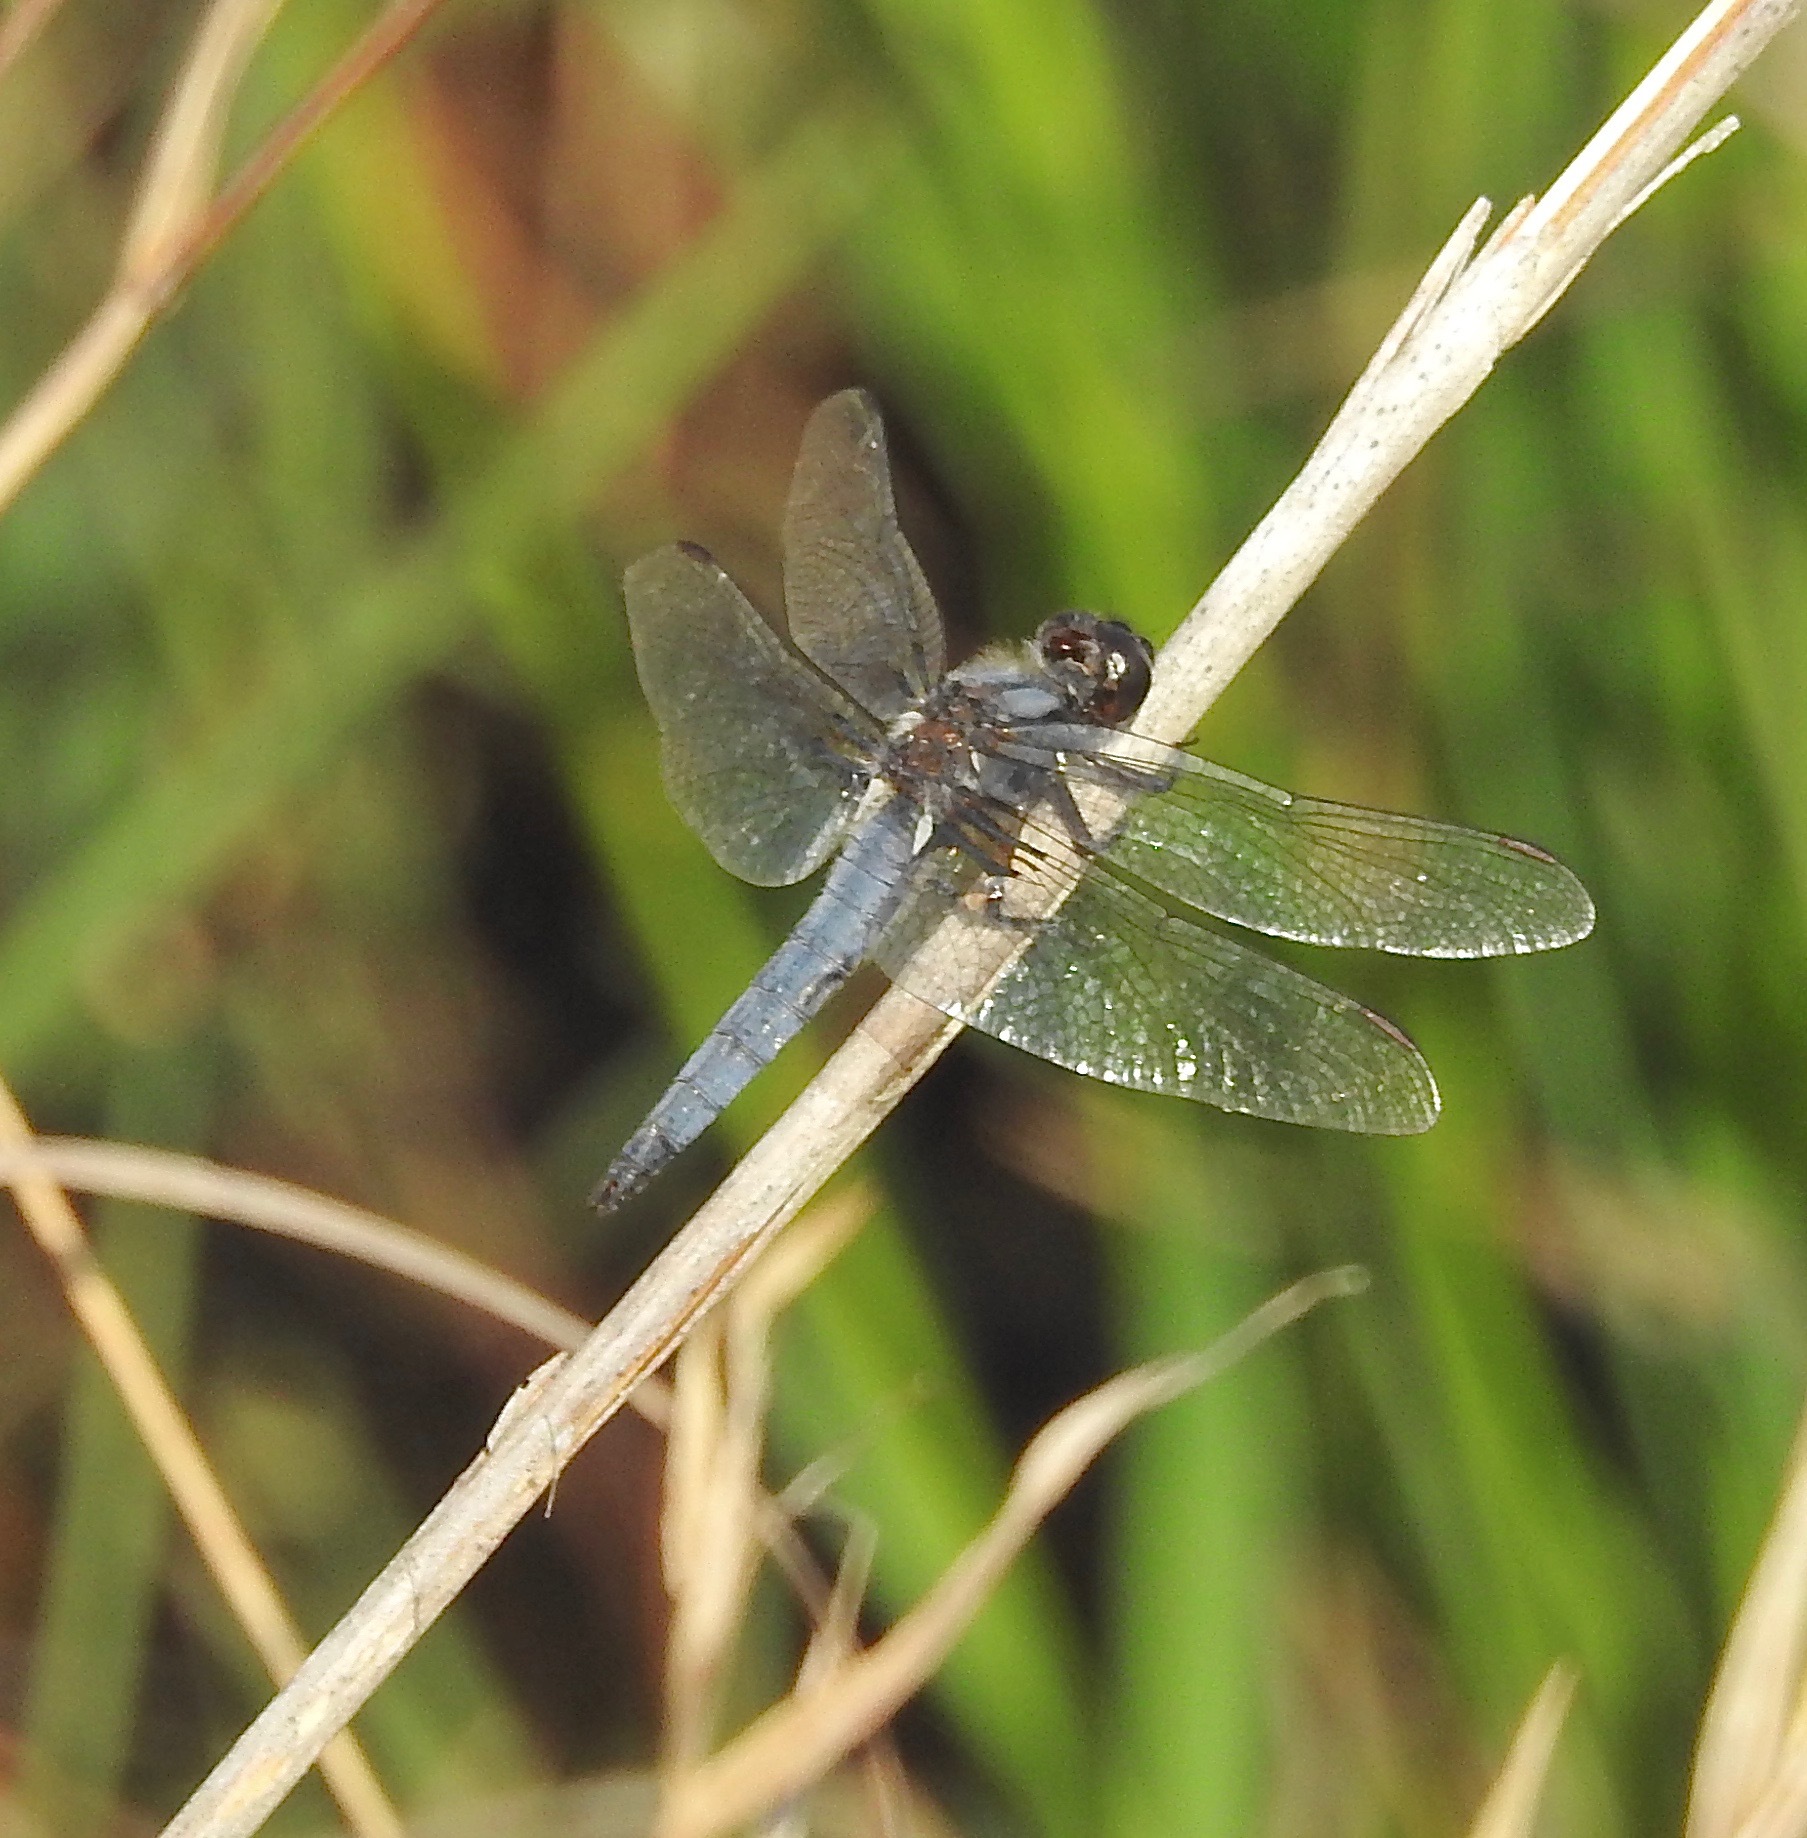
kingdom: Animalia
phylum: Arthropoda
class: Insecta
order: Odonata
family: Libellulidae
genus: Ladona
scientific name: Ladona deplanata
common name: Blue corporal
